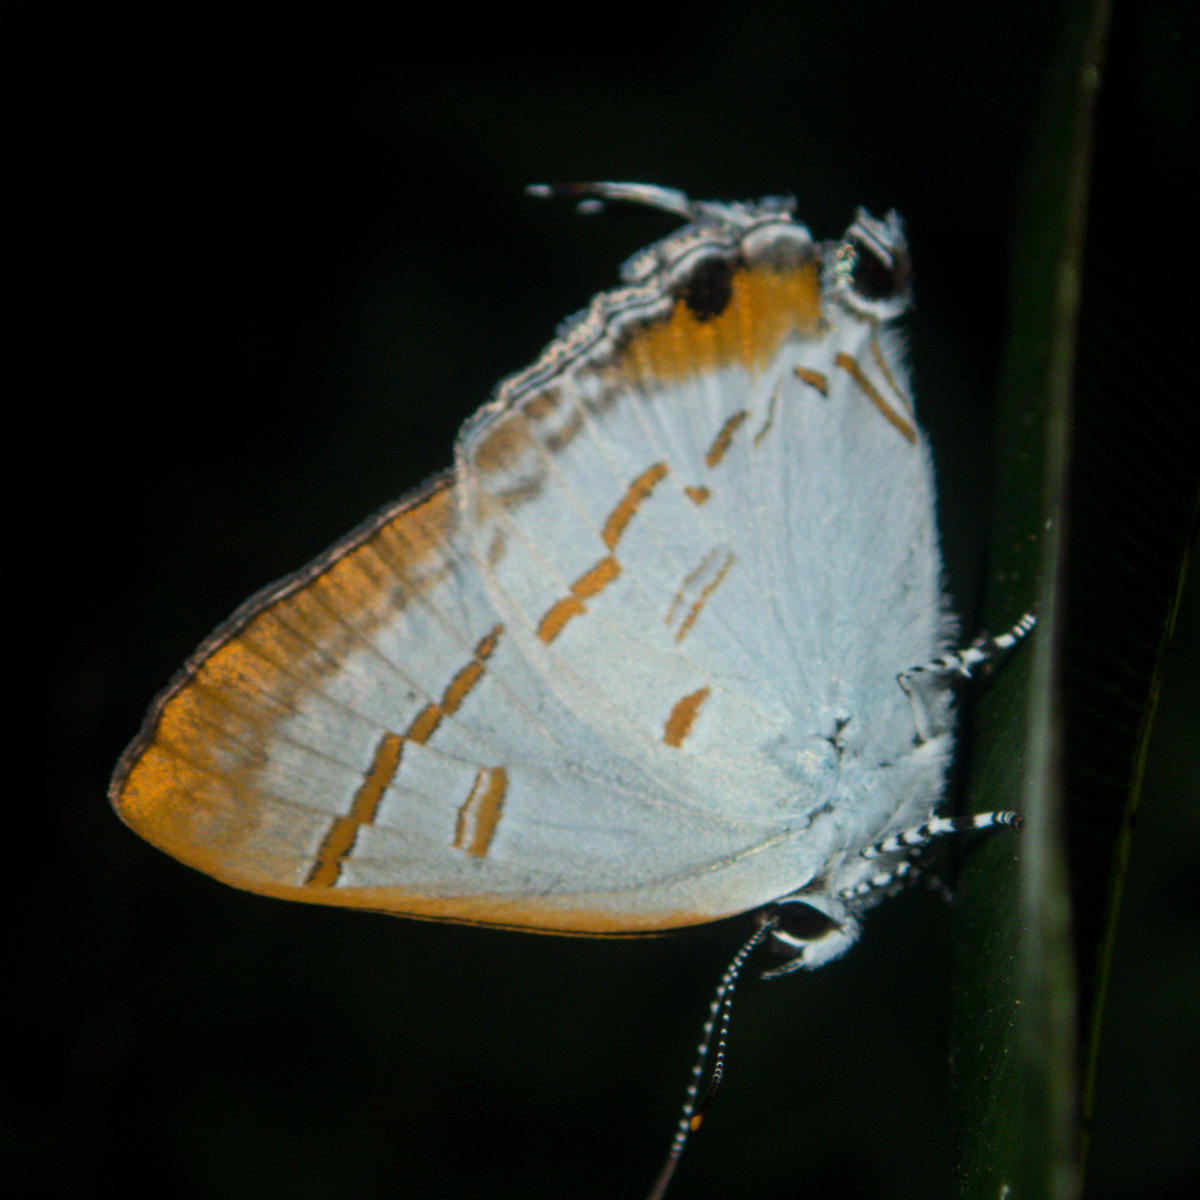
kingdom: Animalia
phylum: Arthropoda
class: Insecta
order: Lepidoptera
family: Lycaenidae
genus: Hypolycaena
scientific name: Hypolycaena thecloides
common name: Dark tit
